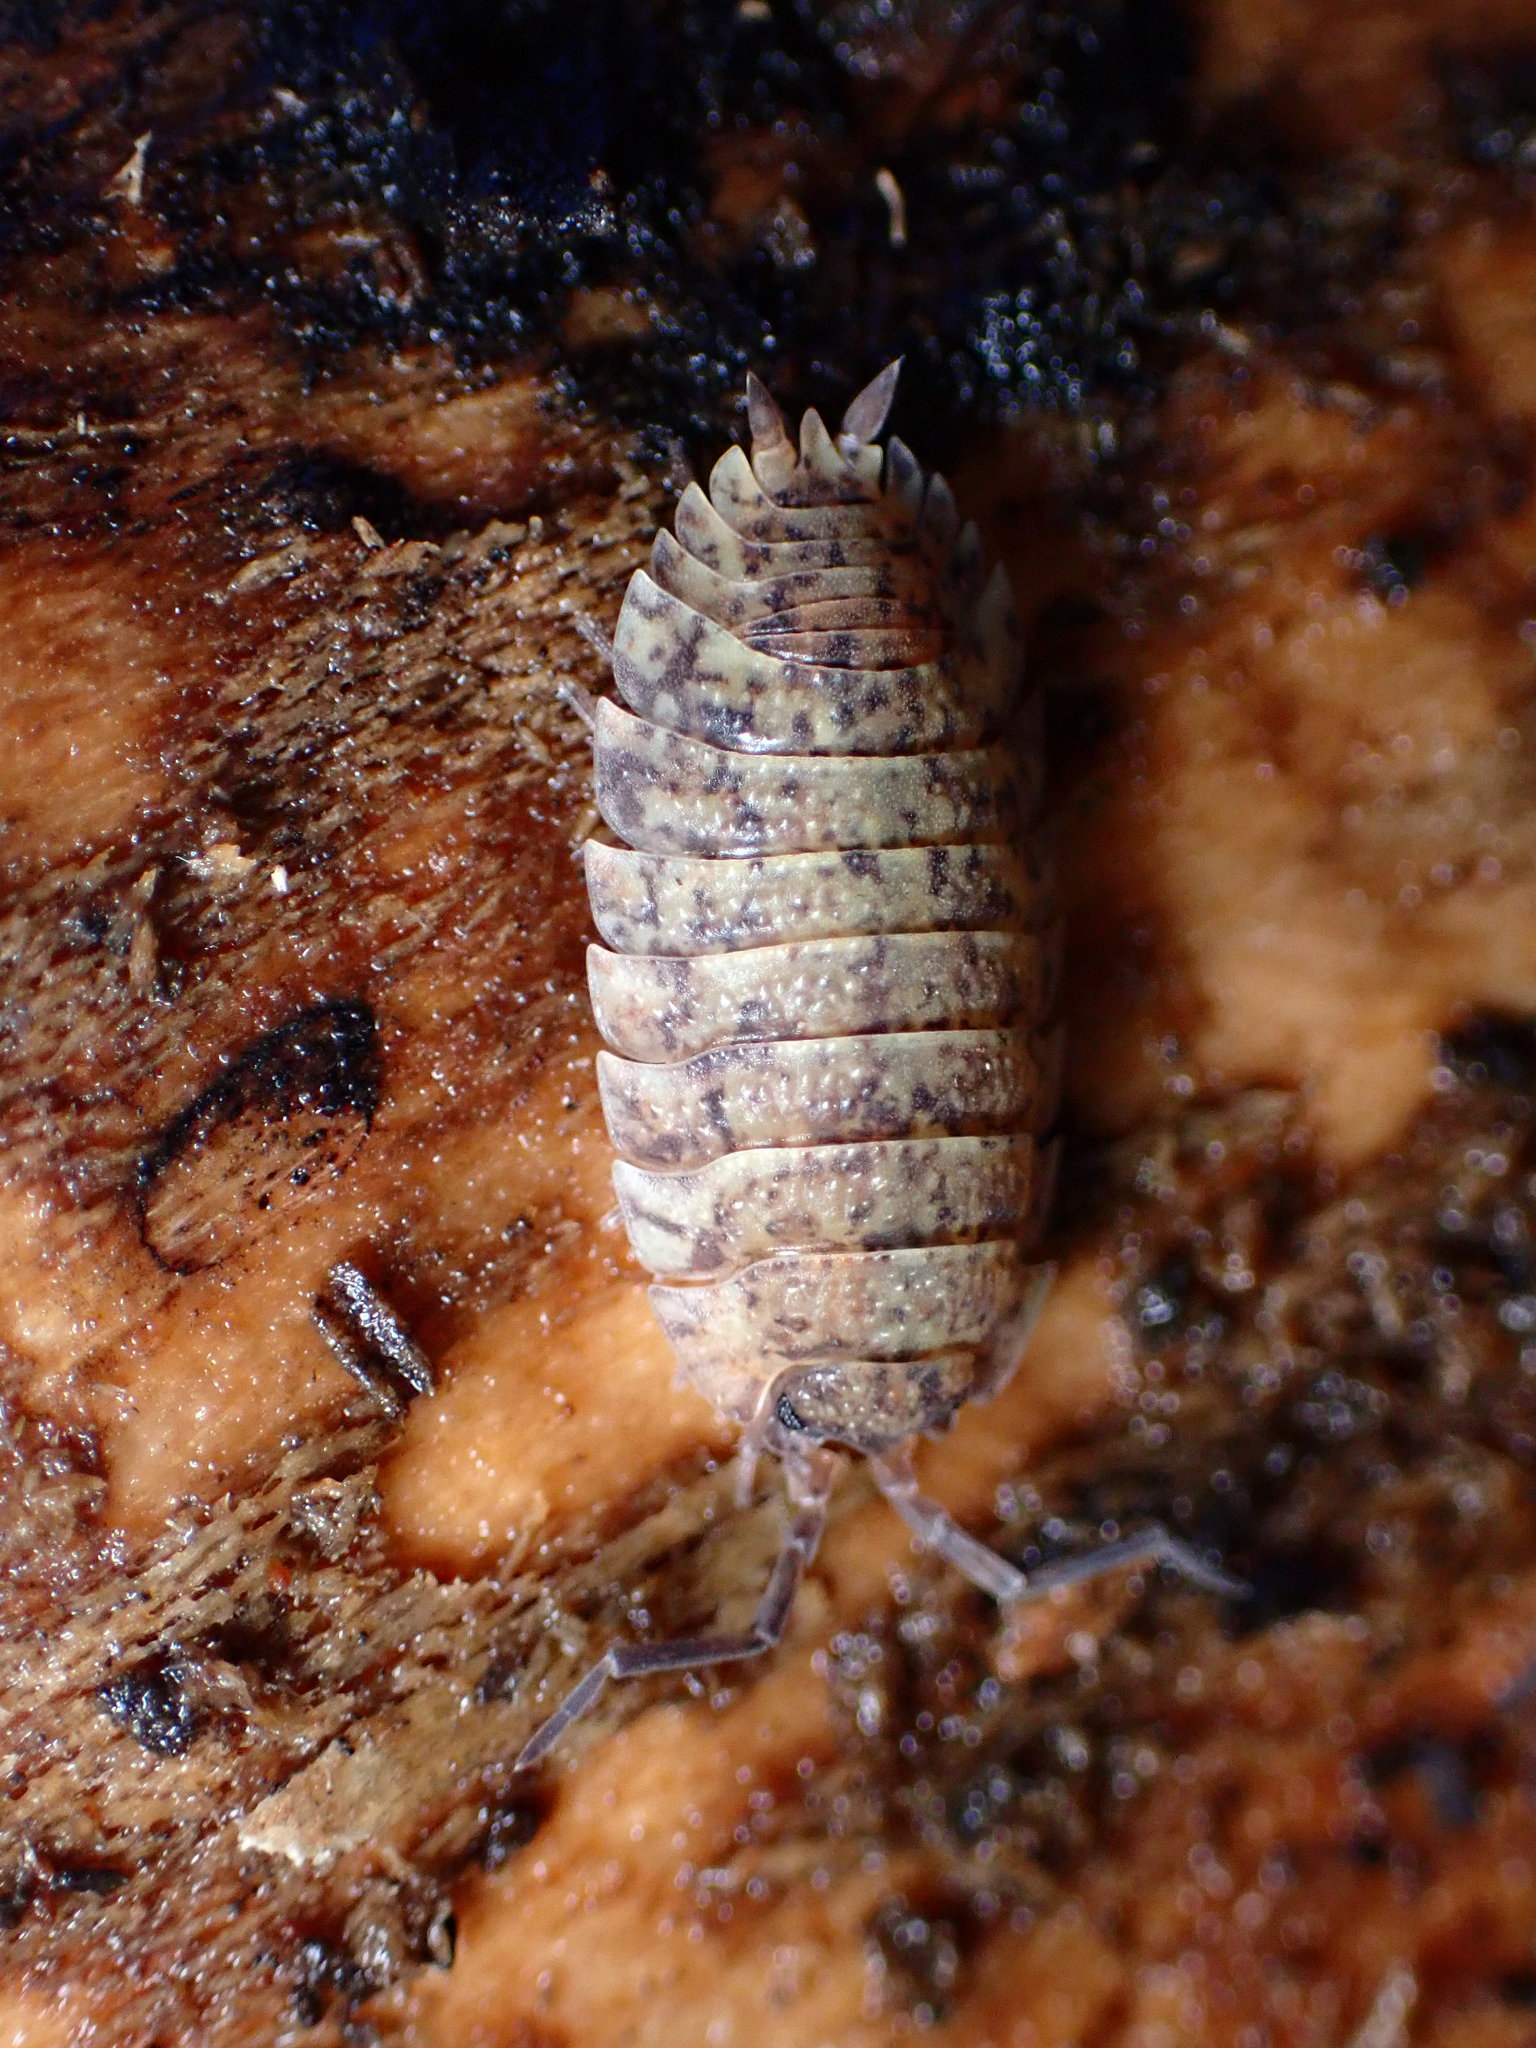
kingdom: Animalia
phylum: Arthropoda
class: Malacostraca
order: Isopoda
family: Porcellionidae
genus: Porcellio
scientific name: Porcellio scaber
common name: Common rough woodlouse
